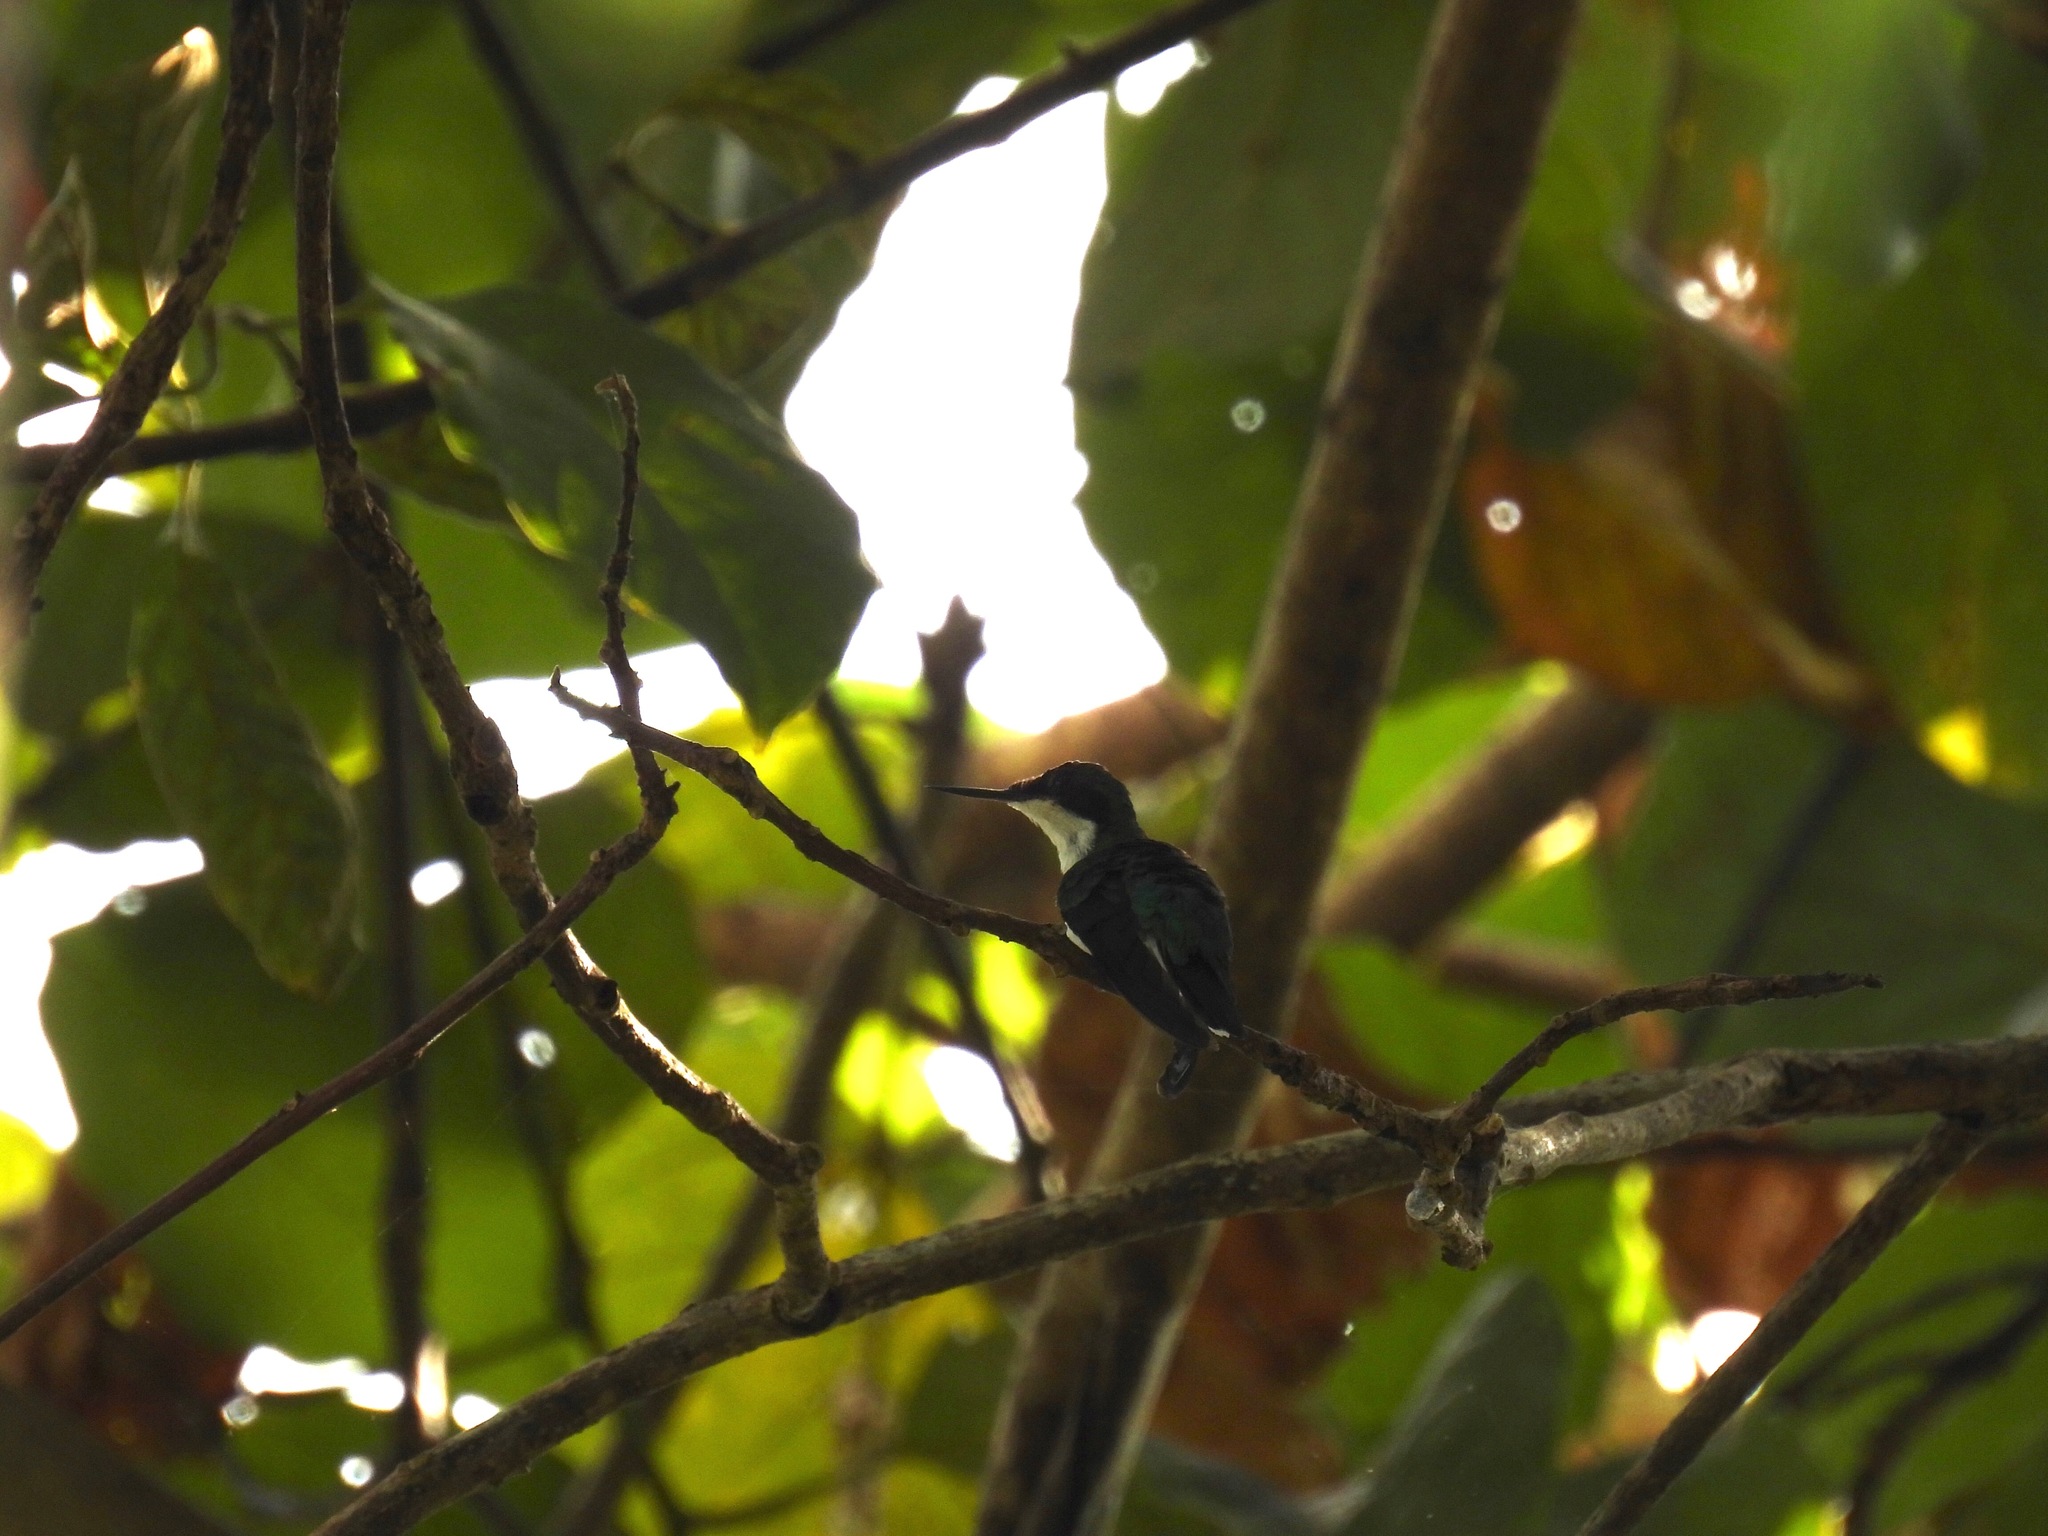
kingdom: Animalia
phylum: Chordata
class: Aves
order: Apodiformes
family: Trochilidae
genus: Heliothryx
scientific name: Heliothryx barroti
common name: Purple-crowned fairy
